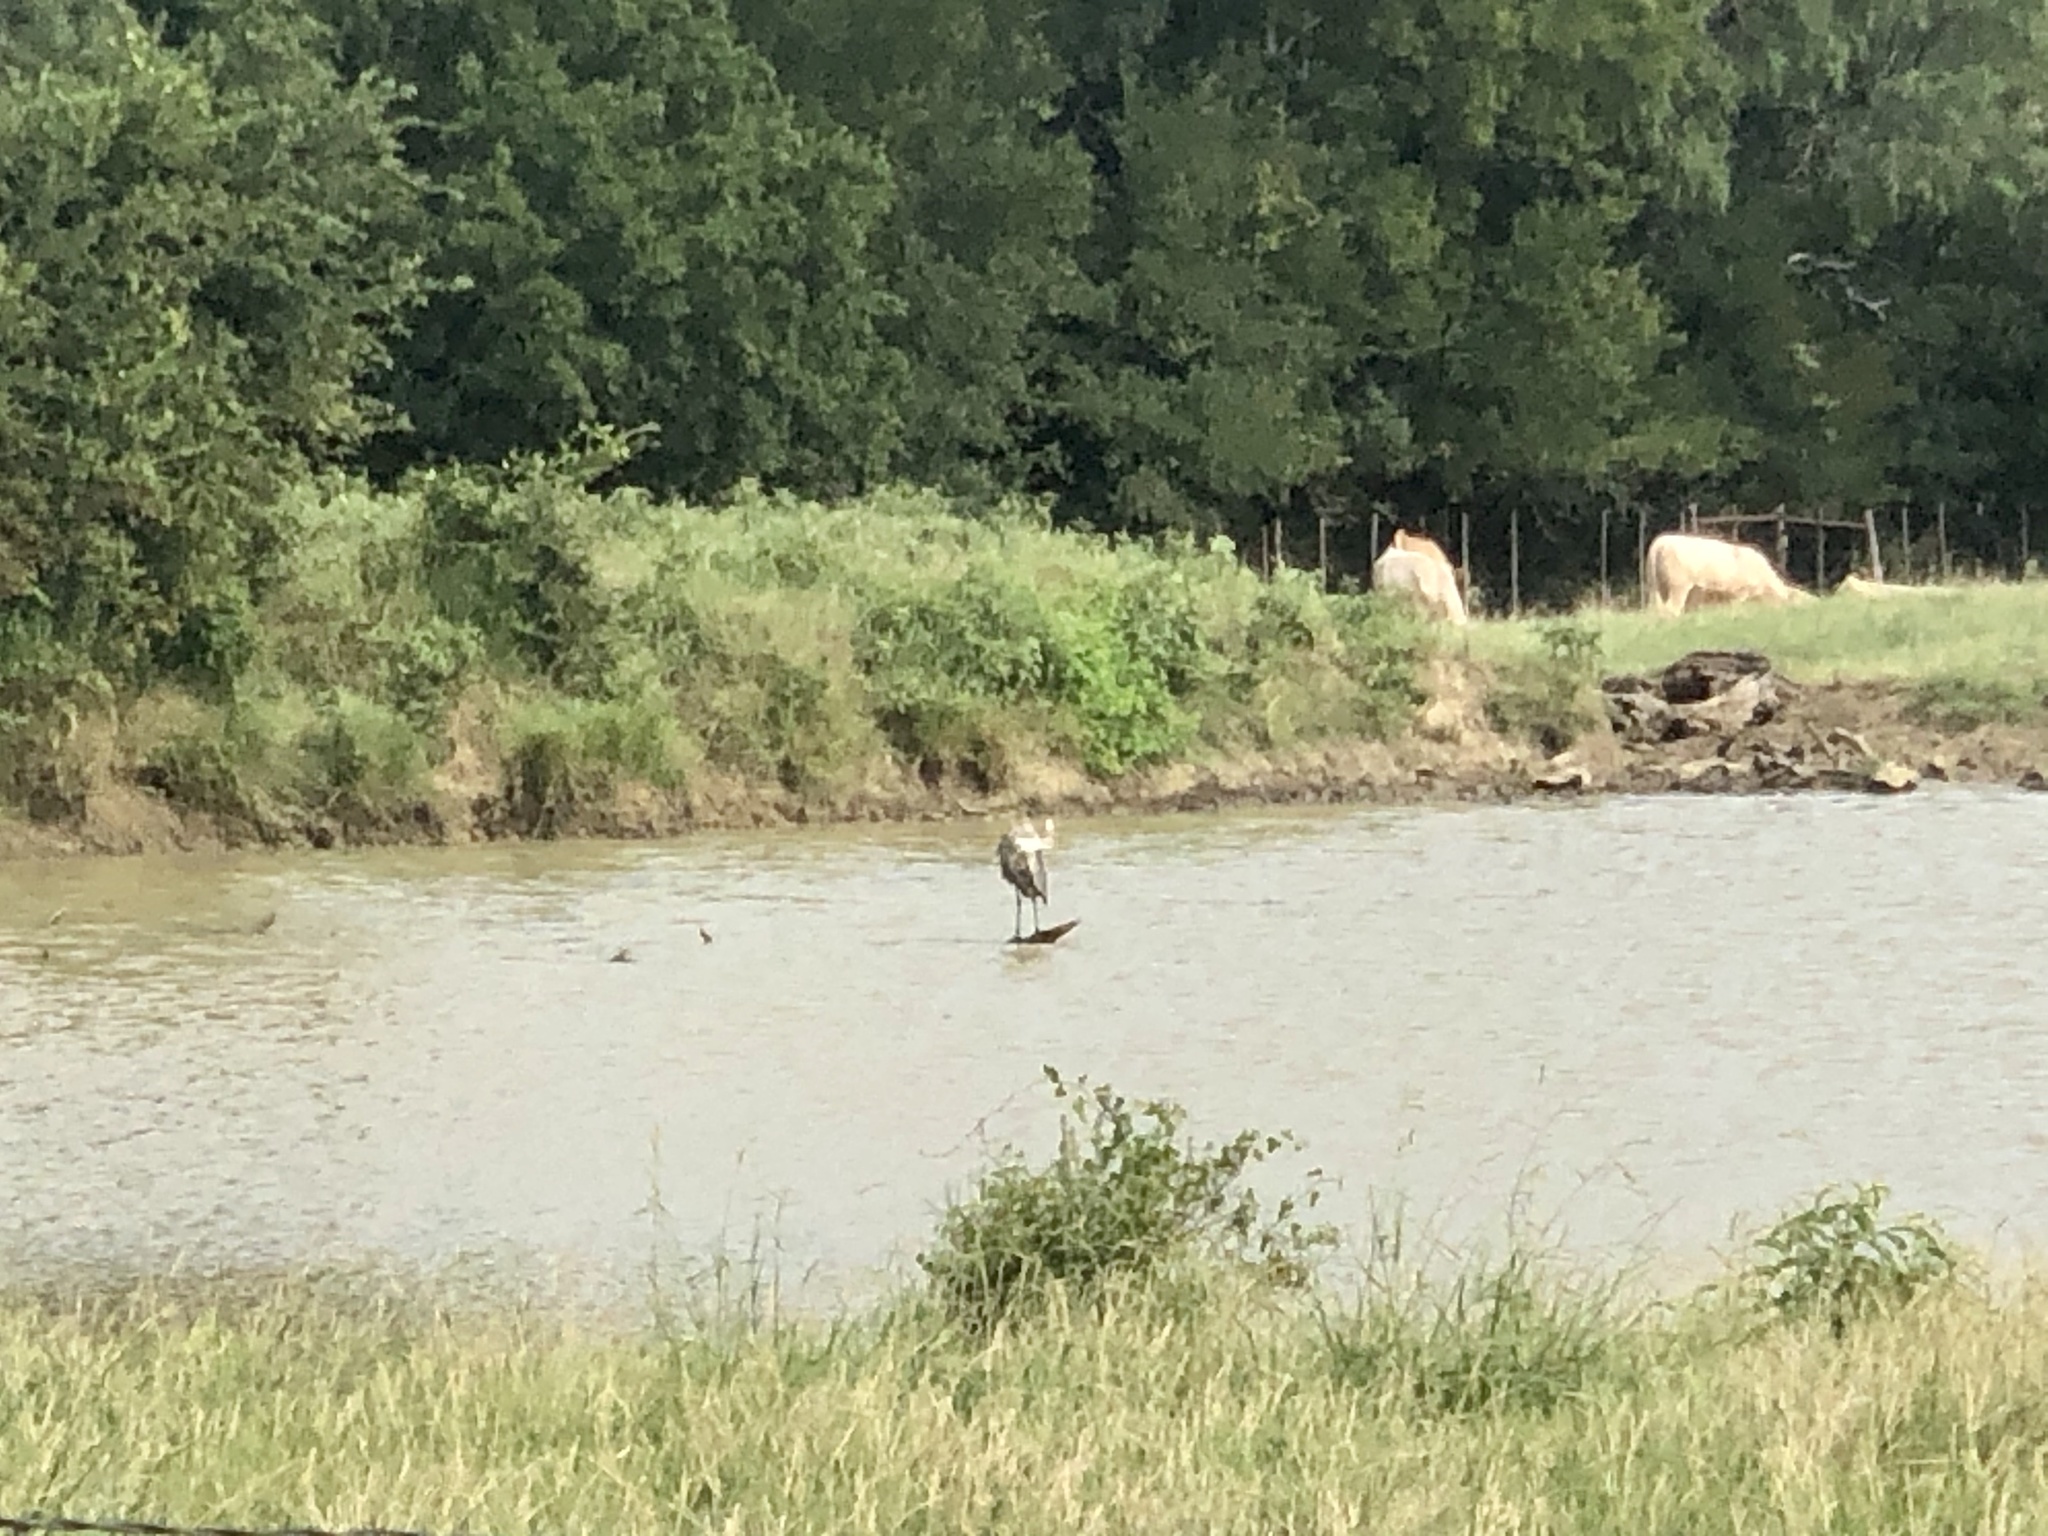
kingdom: Animalia
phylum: Chordata
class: Aves
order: Pelecaniformes
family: Ardeidae
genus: Ardea
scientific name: Ardea herodias
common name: Great blue heron
